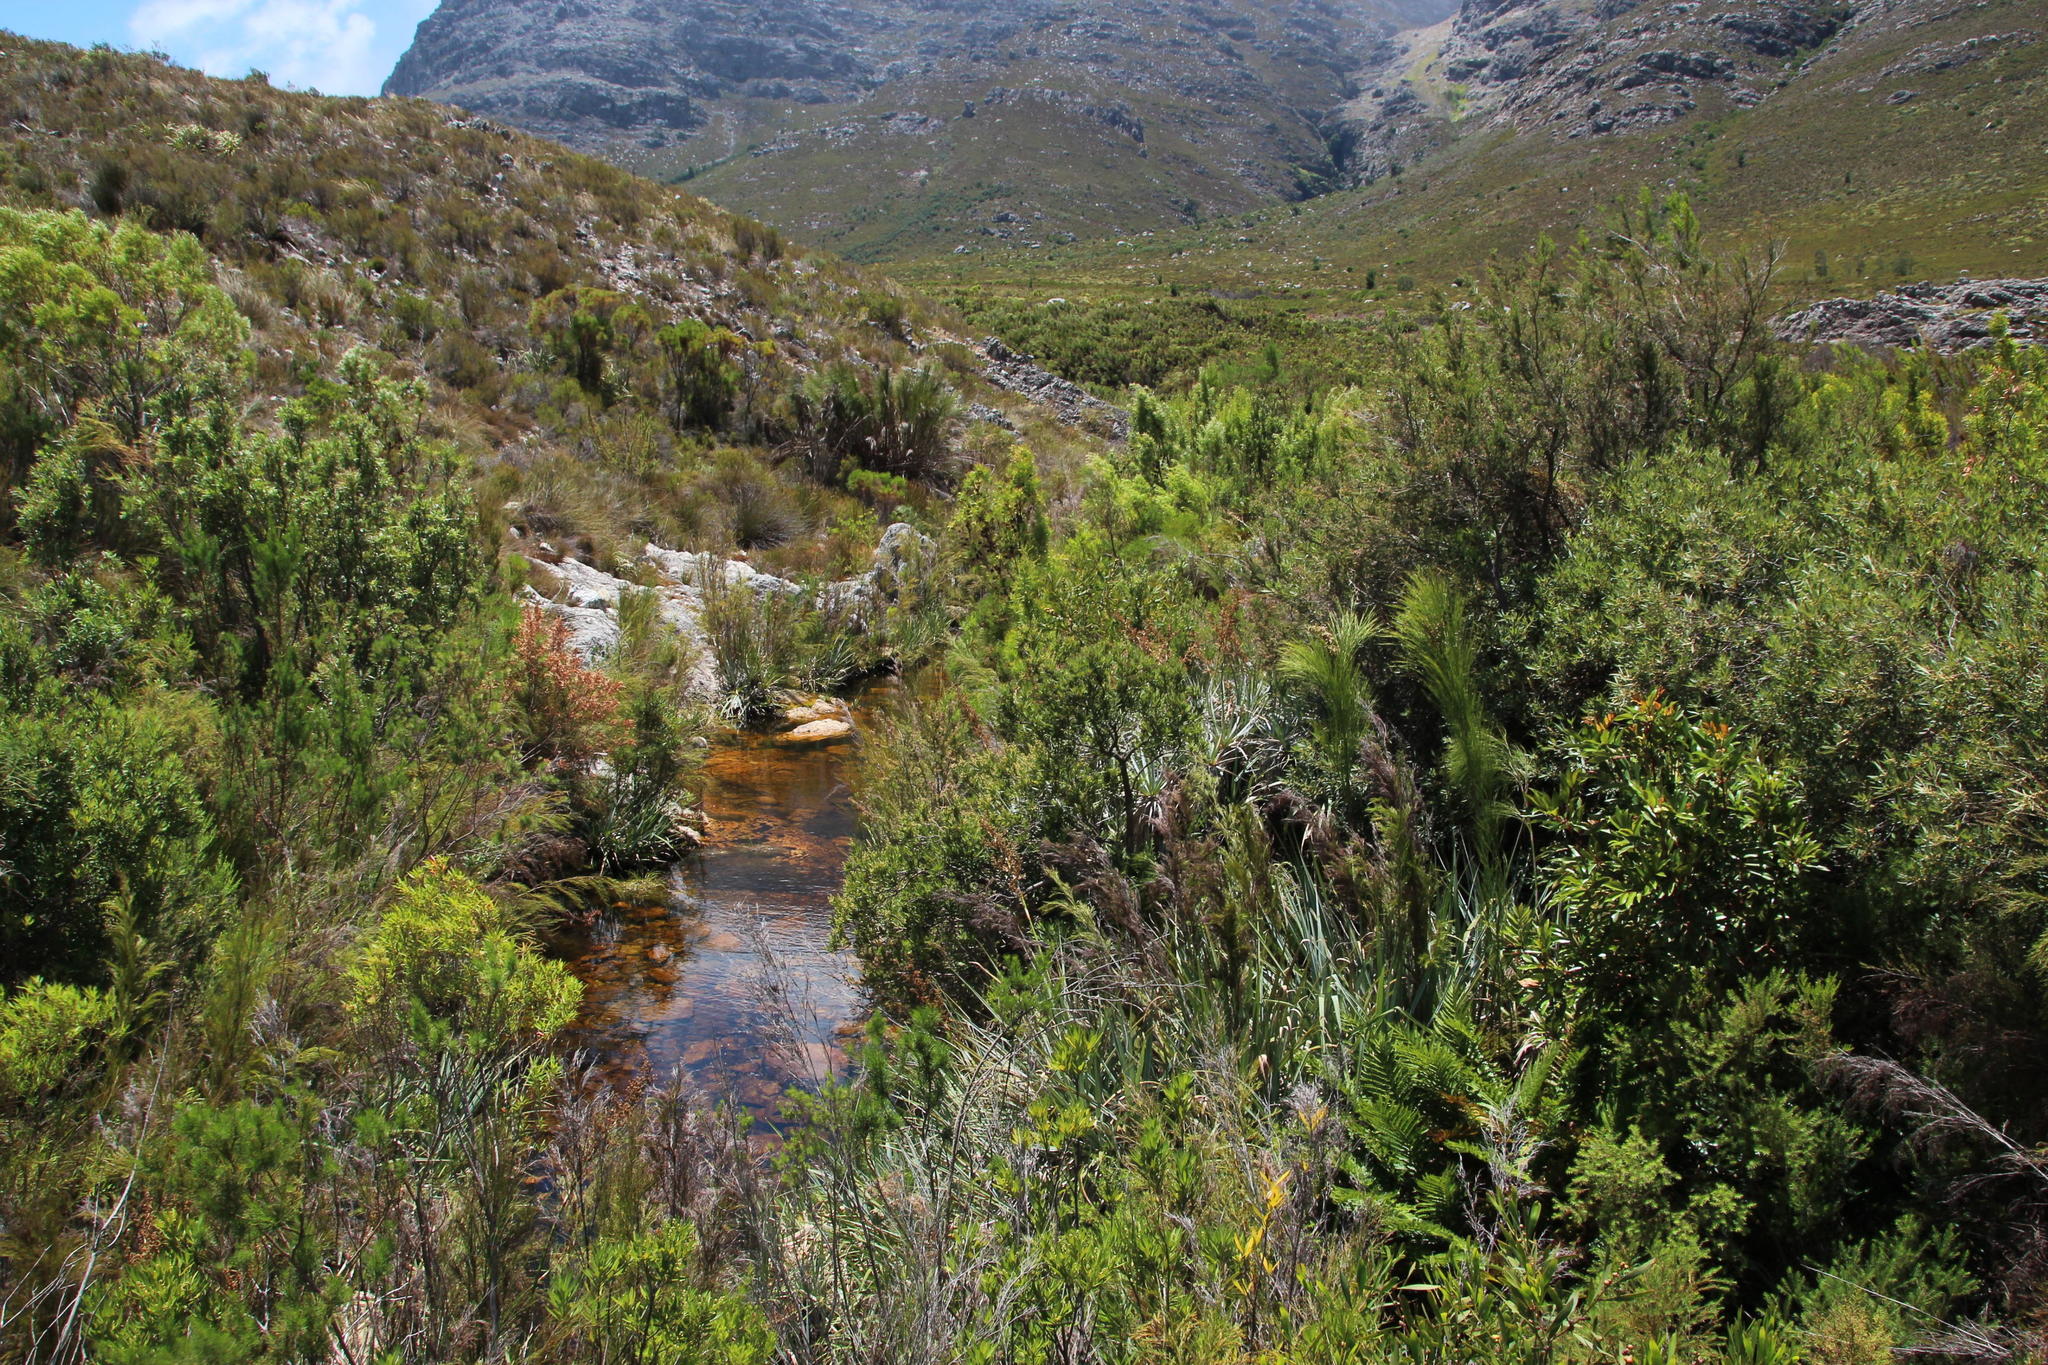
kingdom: Plantae
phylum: Tracheophyta
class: Magnoliopsida
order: Fabales
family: Fabaceae
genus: Acacia
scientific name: Acacia longifolia
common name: Sydney golden wattle
